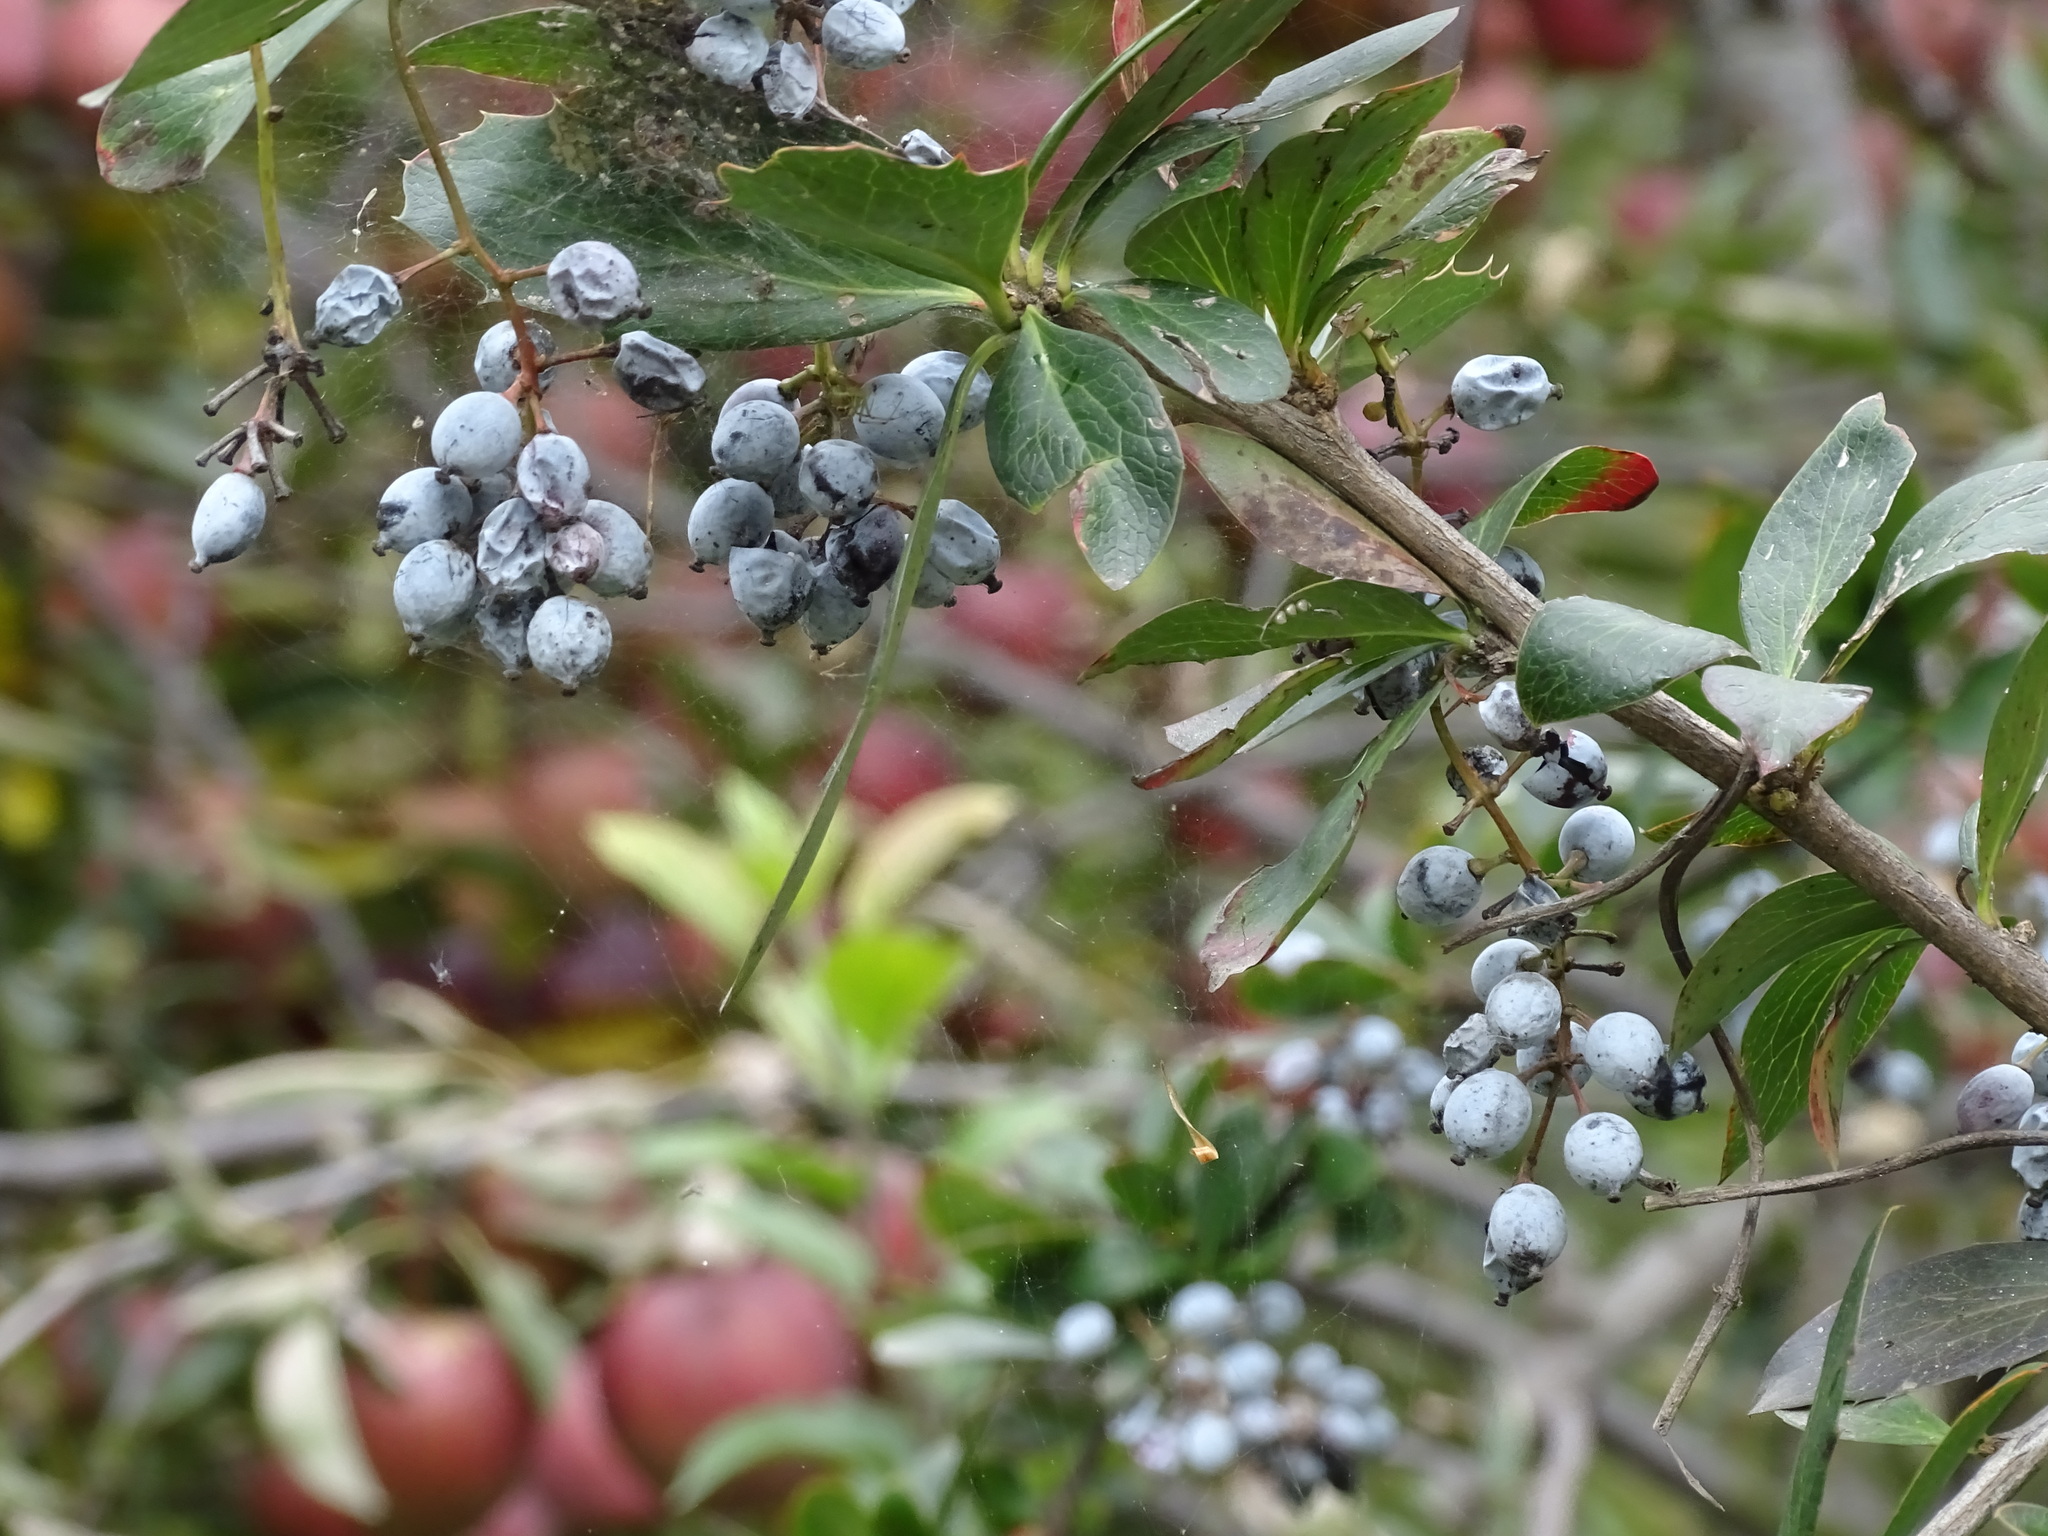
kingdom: Plantae
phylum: Tracheophyta
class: Magnoliopsida
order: Ranunculales
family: Berberidaceae
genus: Berberis
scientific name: Berberis glaucocarpa
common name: Great barberry
